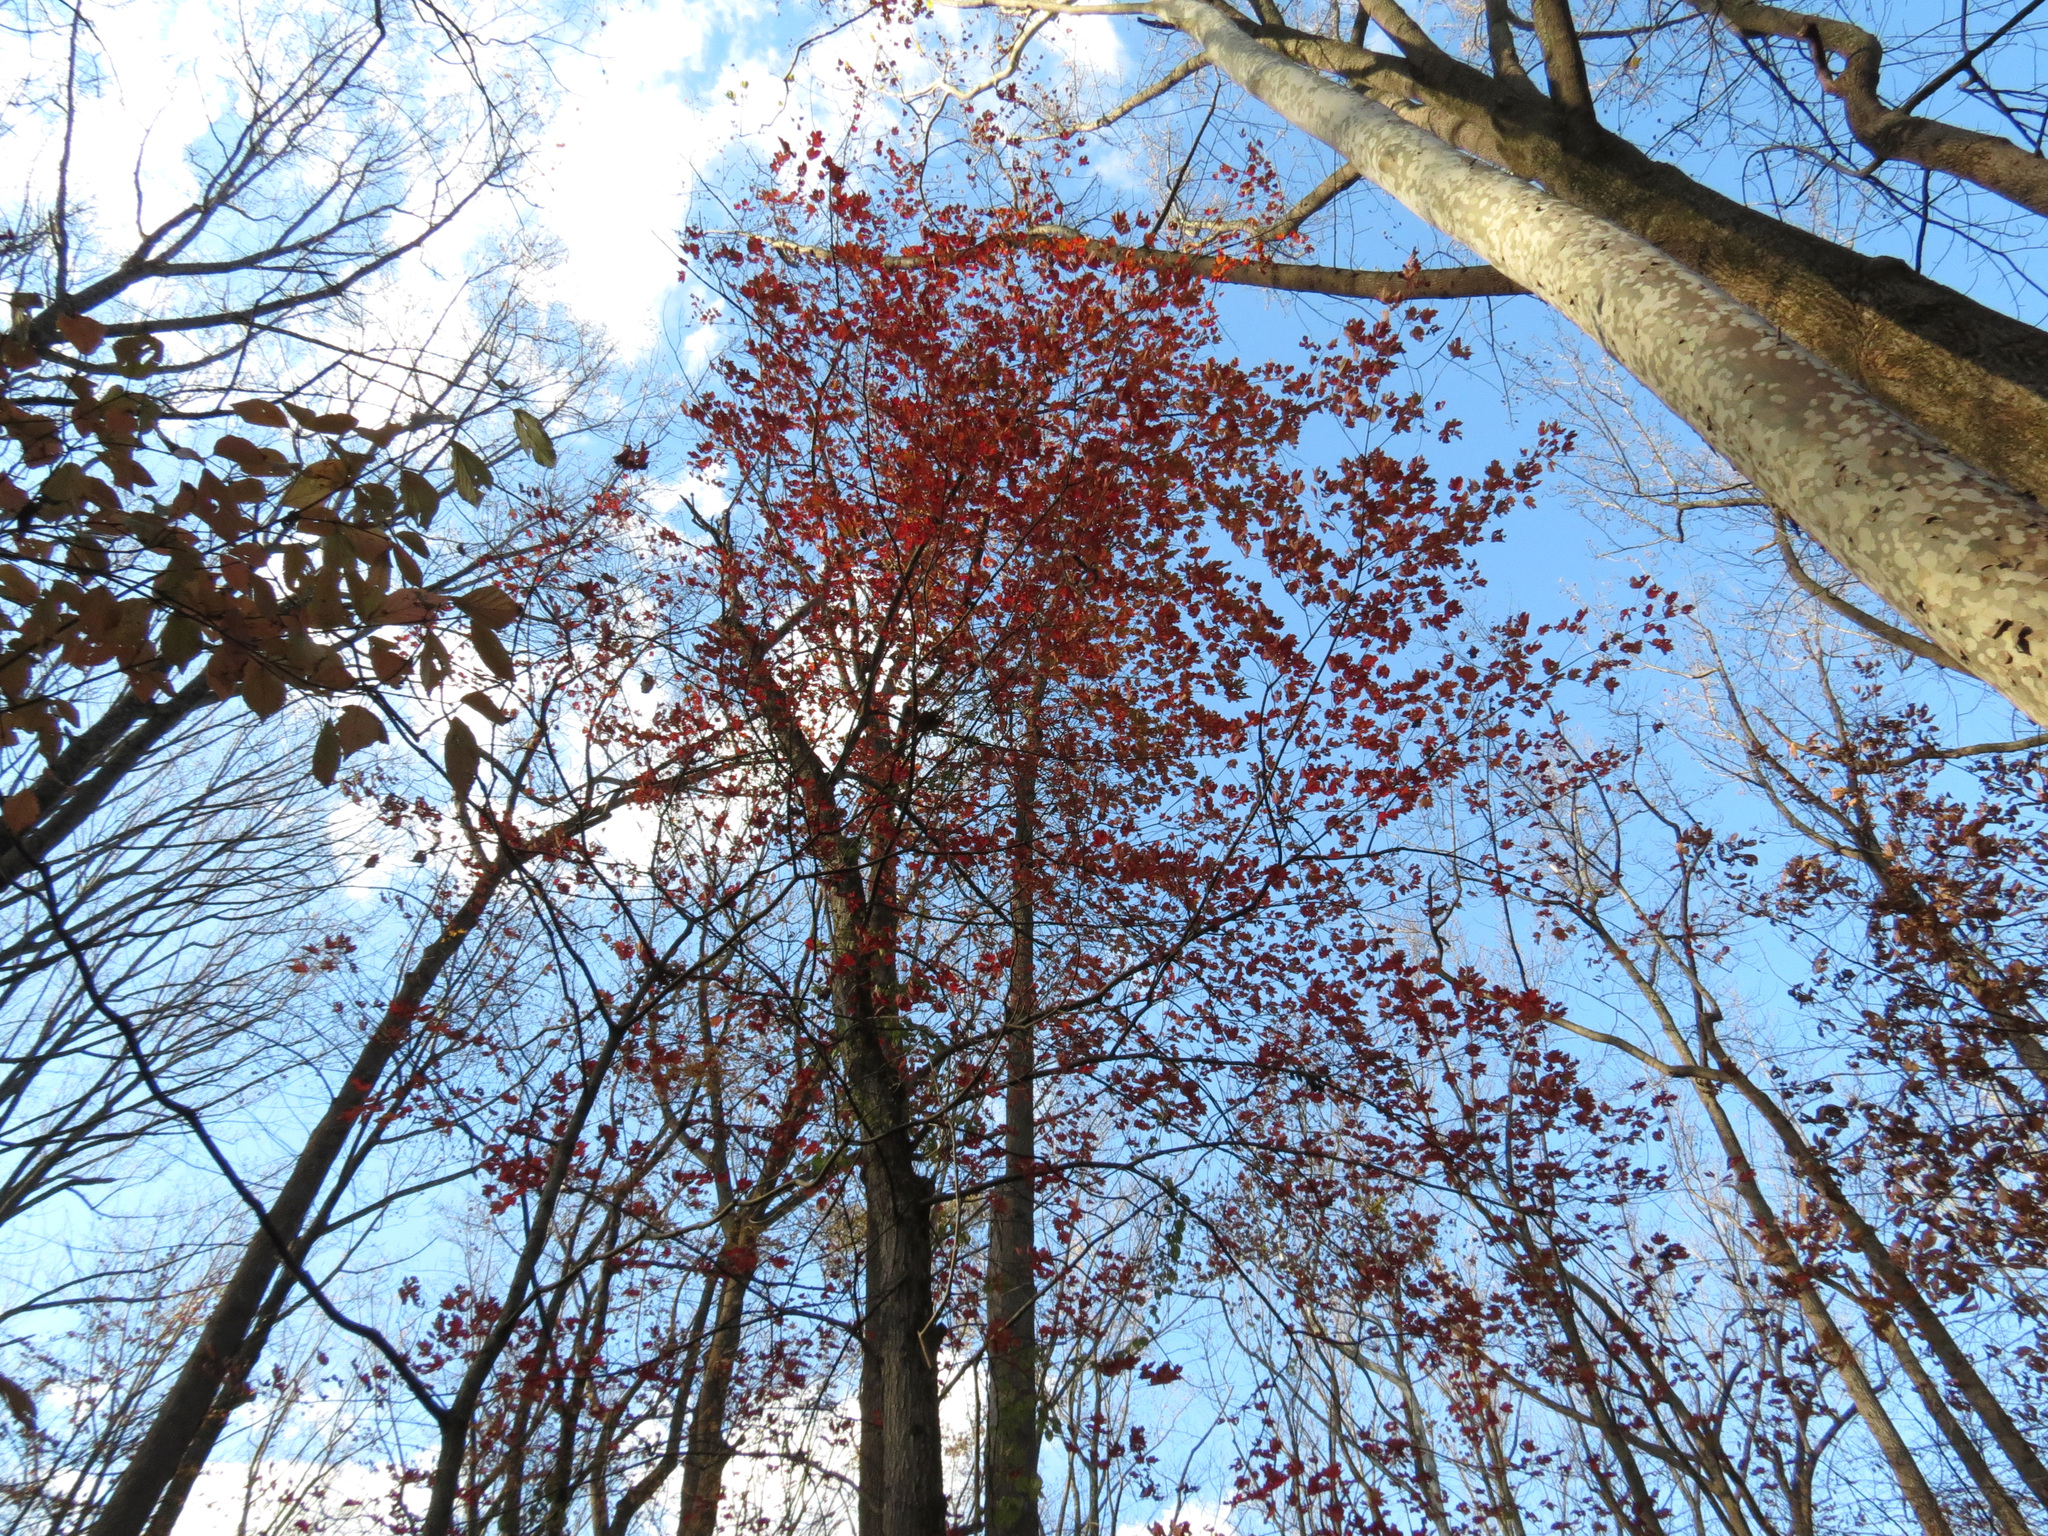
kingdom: Plantae
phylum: Tracheophyta
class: Magnoliopsida
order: Sapindales
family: Sapindaceae
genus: Acer
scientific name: Acer rubrum
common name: Red maple
